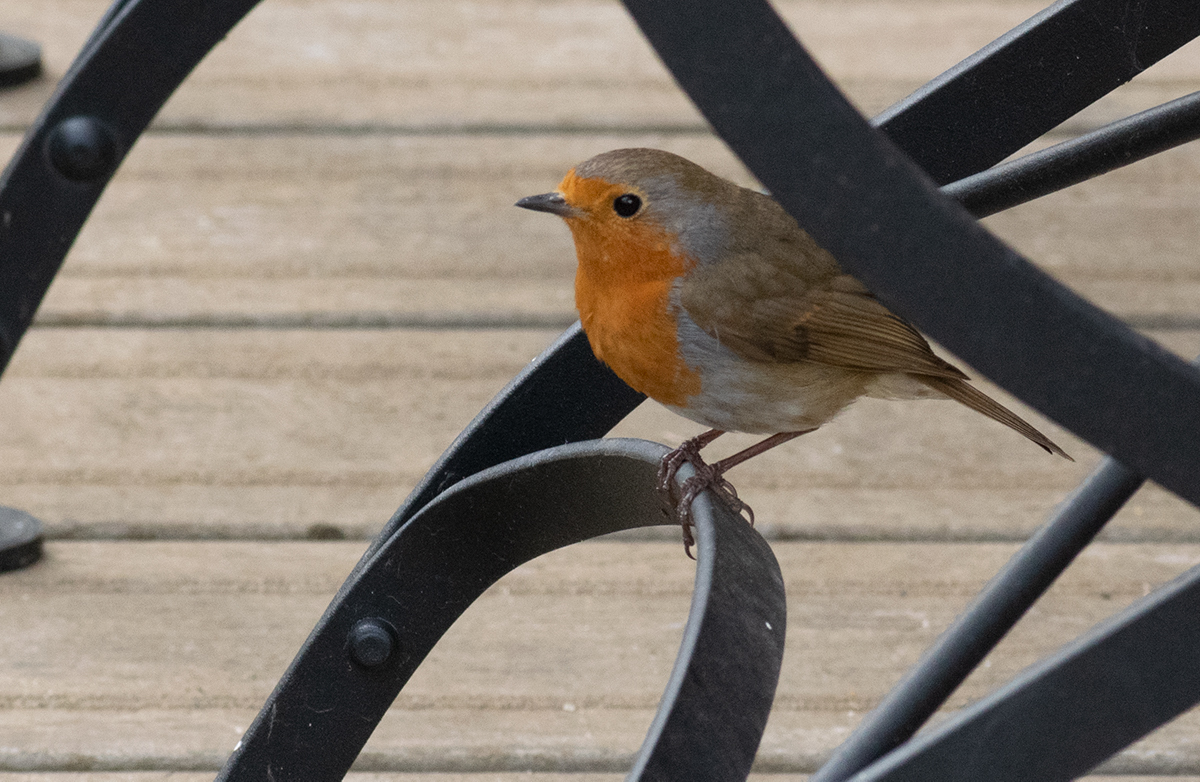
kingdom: Animalia
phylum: Chordata
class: Aves
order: Passeriformes
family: Muscicapidae
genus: Erithacus
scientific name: Erithacus rubecula
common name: European robin
